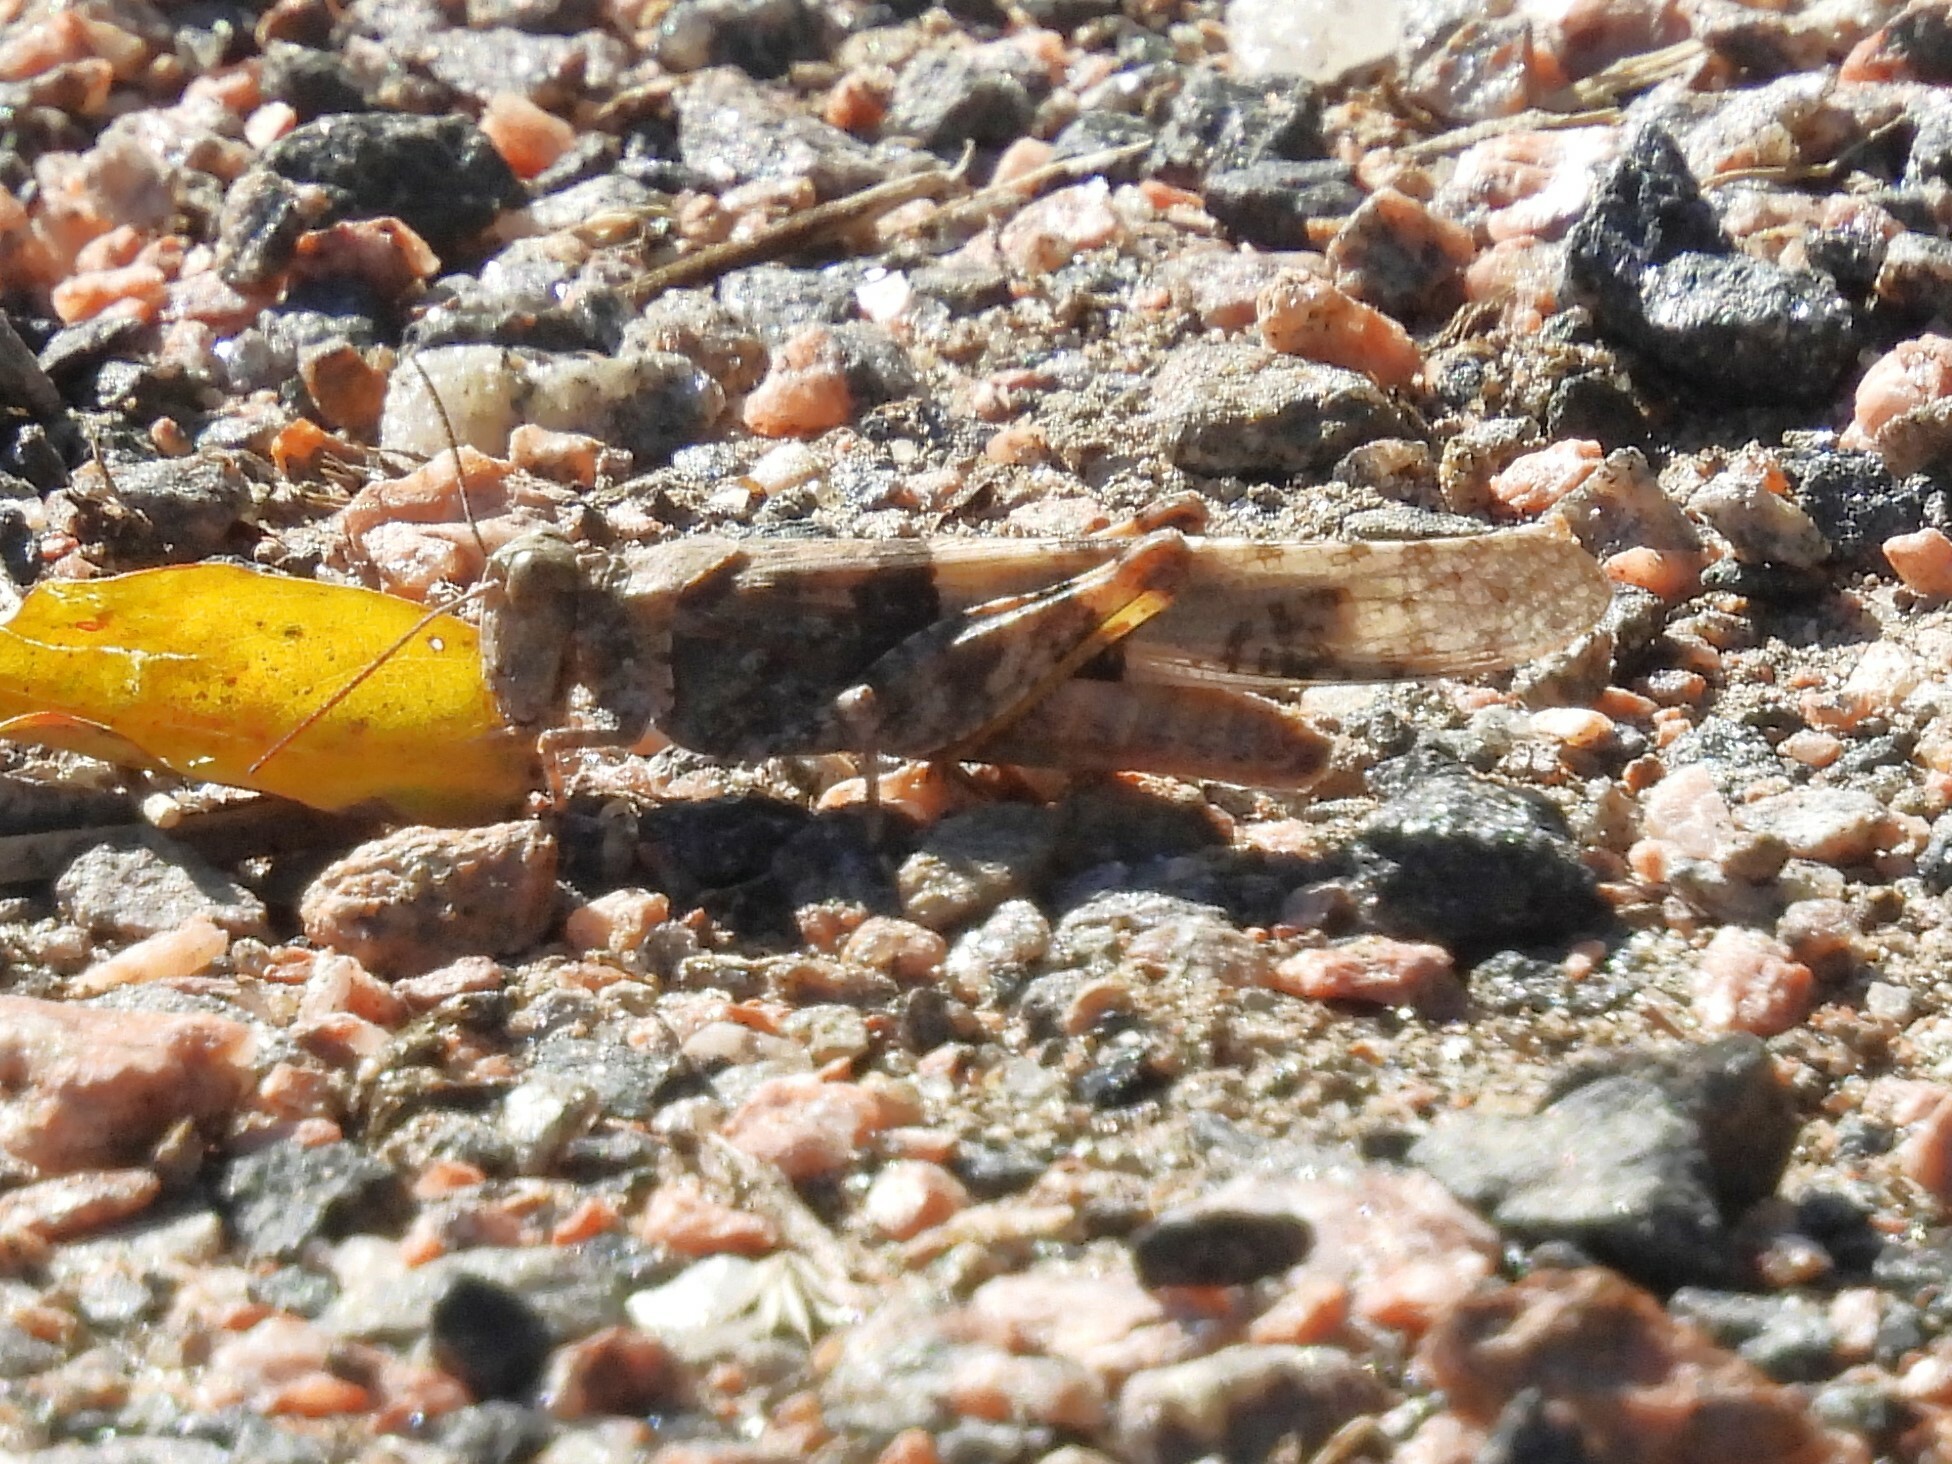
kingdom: Animalia
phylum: Arthropoda
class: Insecta
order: Orthoptera
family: Acrididae
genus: Trimerotropis
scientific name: Trimerotropis pallidipennis
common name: Pallid-winged grasshopper
